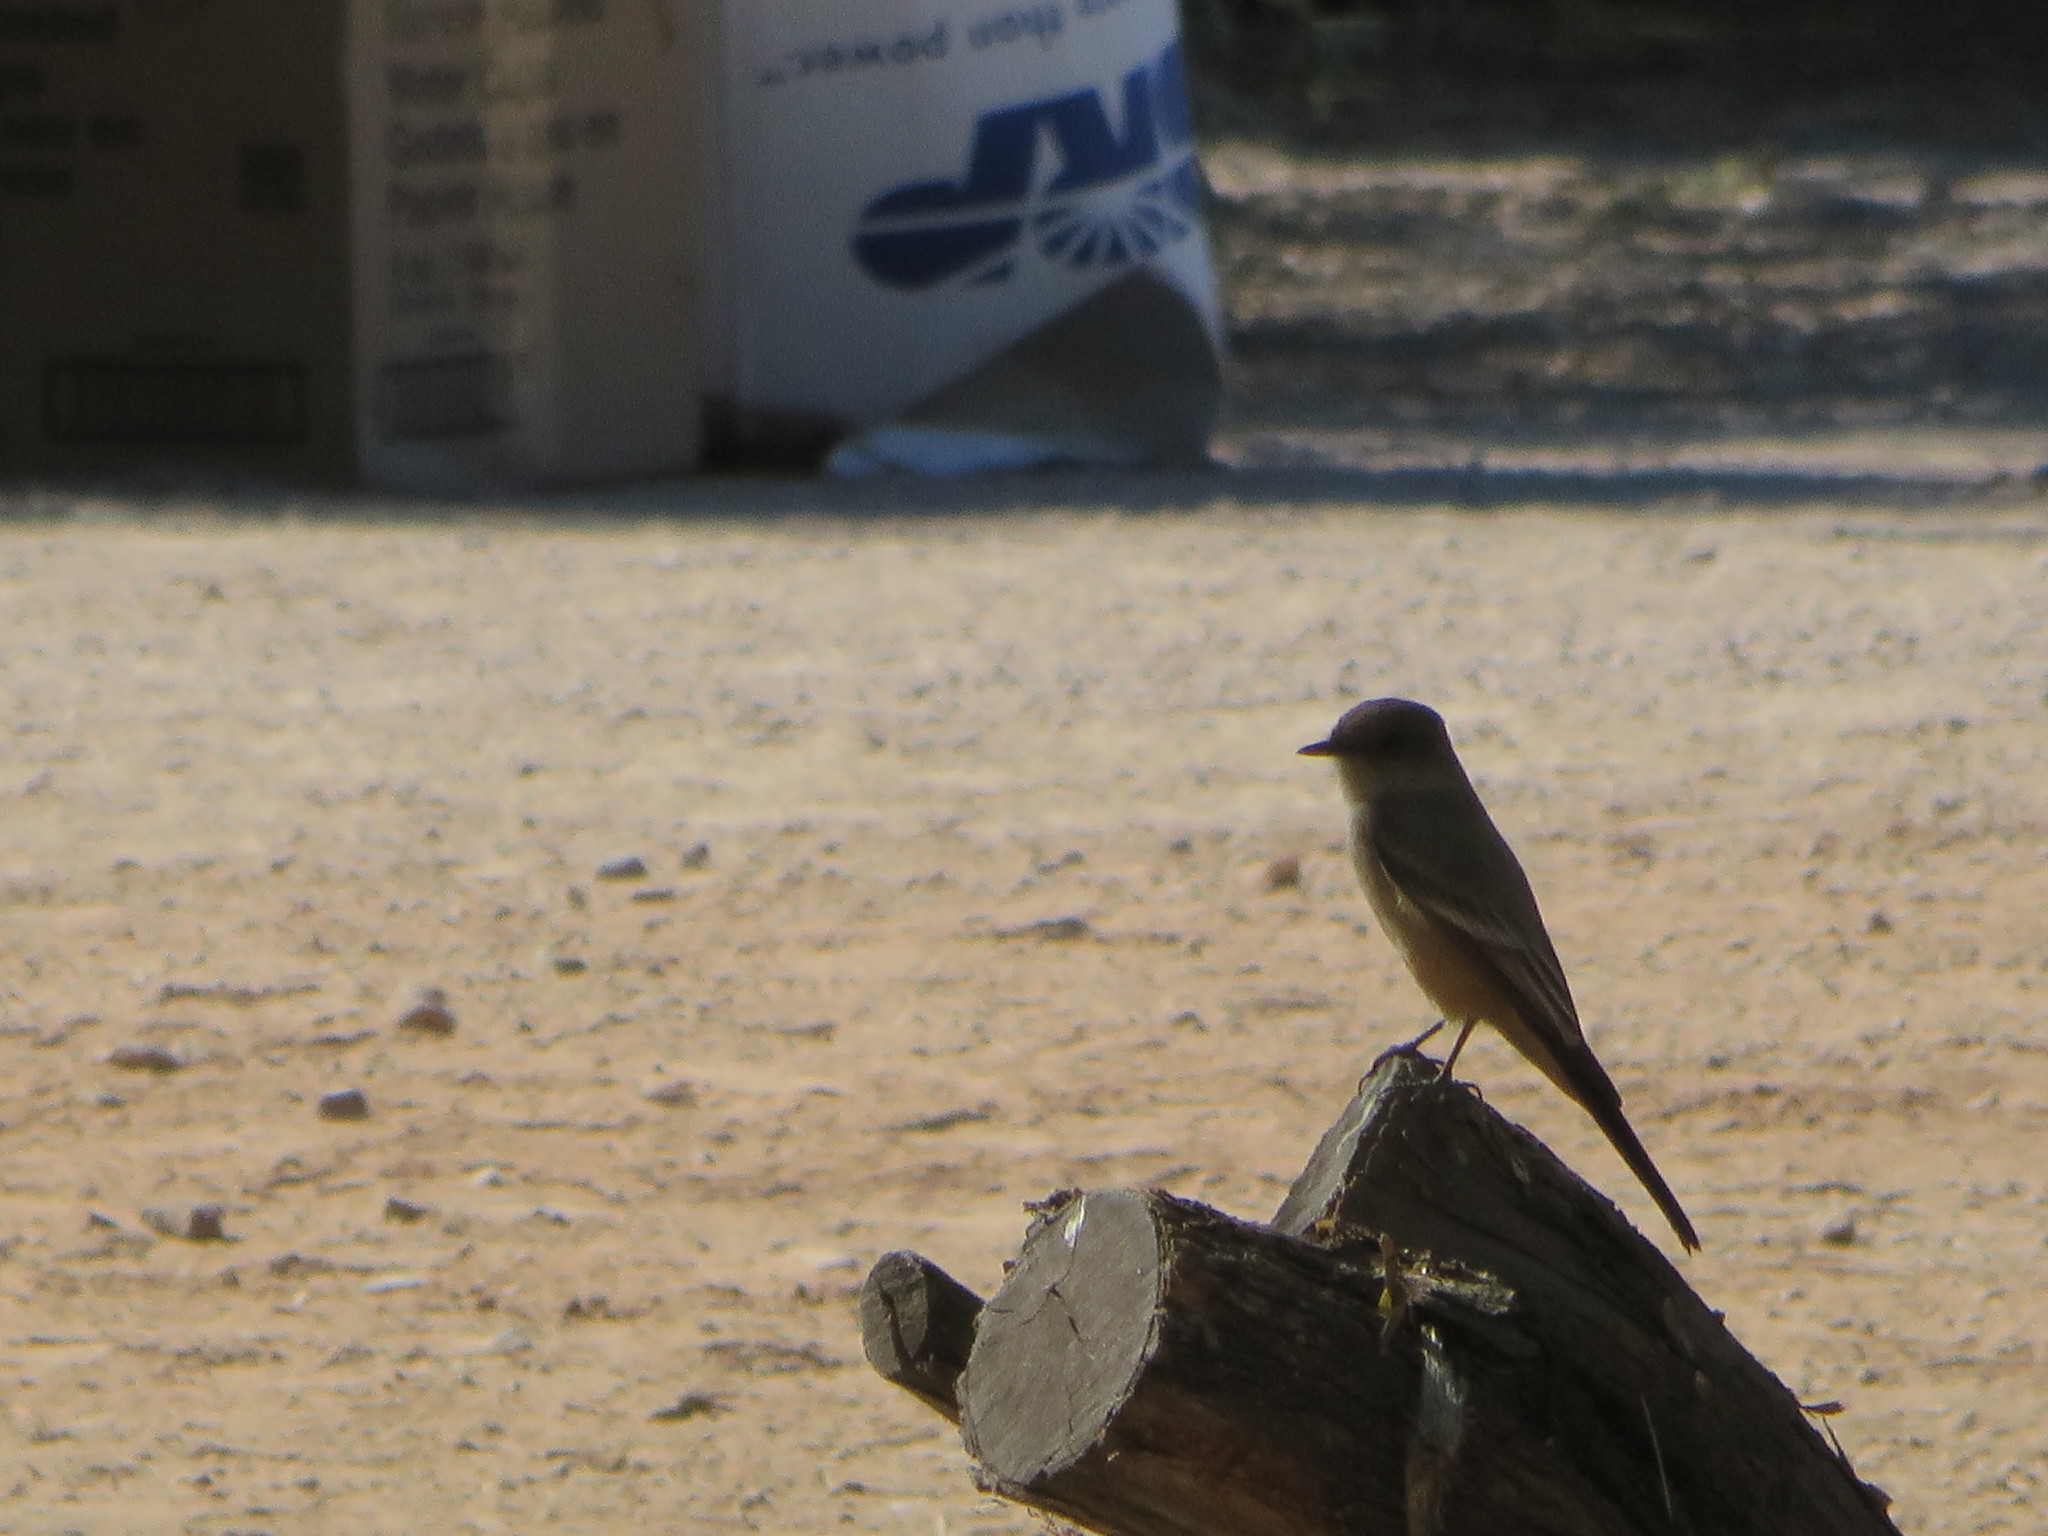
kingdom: Animalia
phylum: Chordata
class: Aves
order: Passeriformes
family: Tyrannidae
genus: Sayornis
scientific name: Sayornis saya
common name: Say's phoebe
